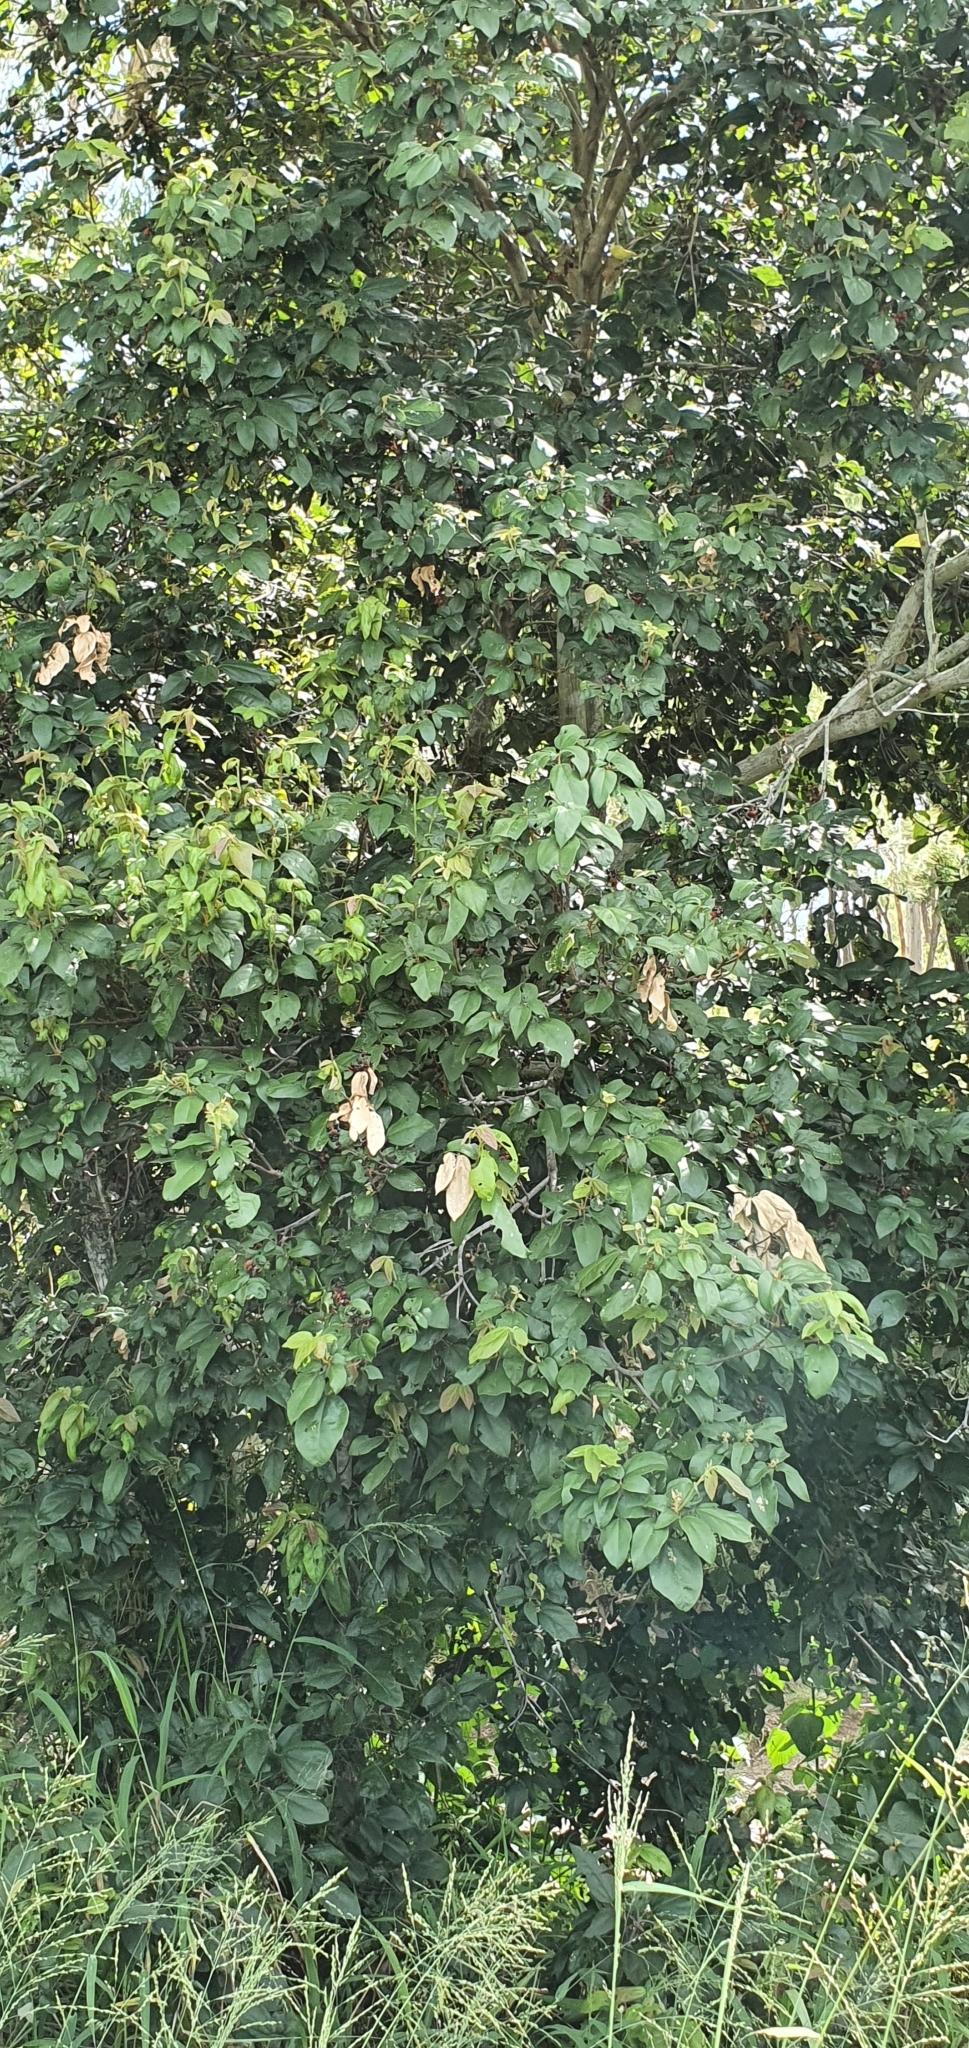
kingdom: Plantae
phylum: Tracheophyta
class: Magnoliopsida
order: Malpighiales
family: Euphorbiaceae
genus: Mallotus
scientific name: Mallotus philippensis
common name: Kamala tree
